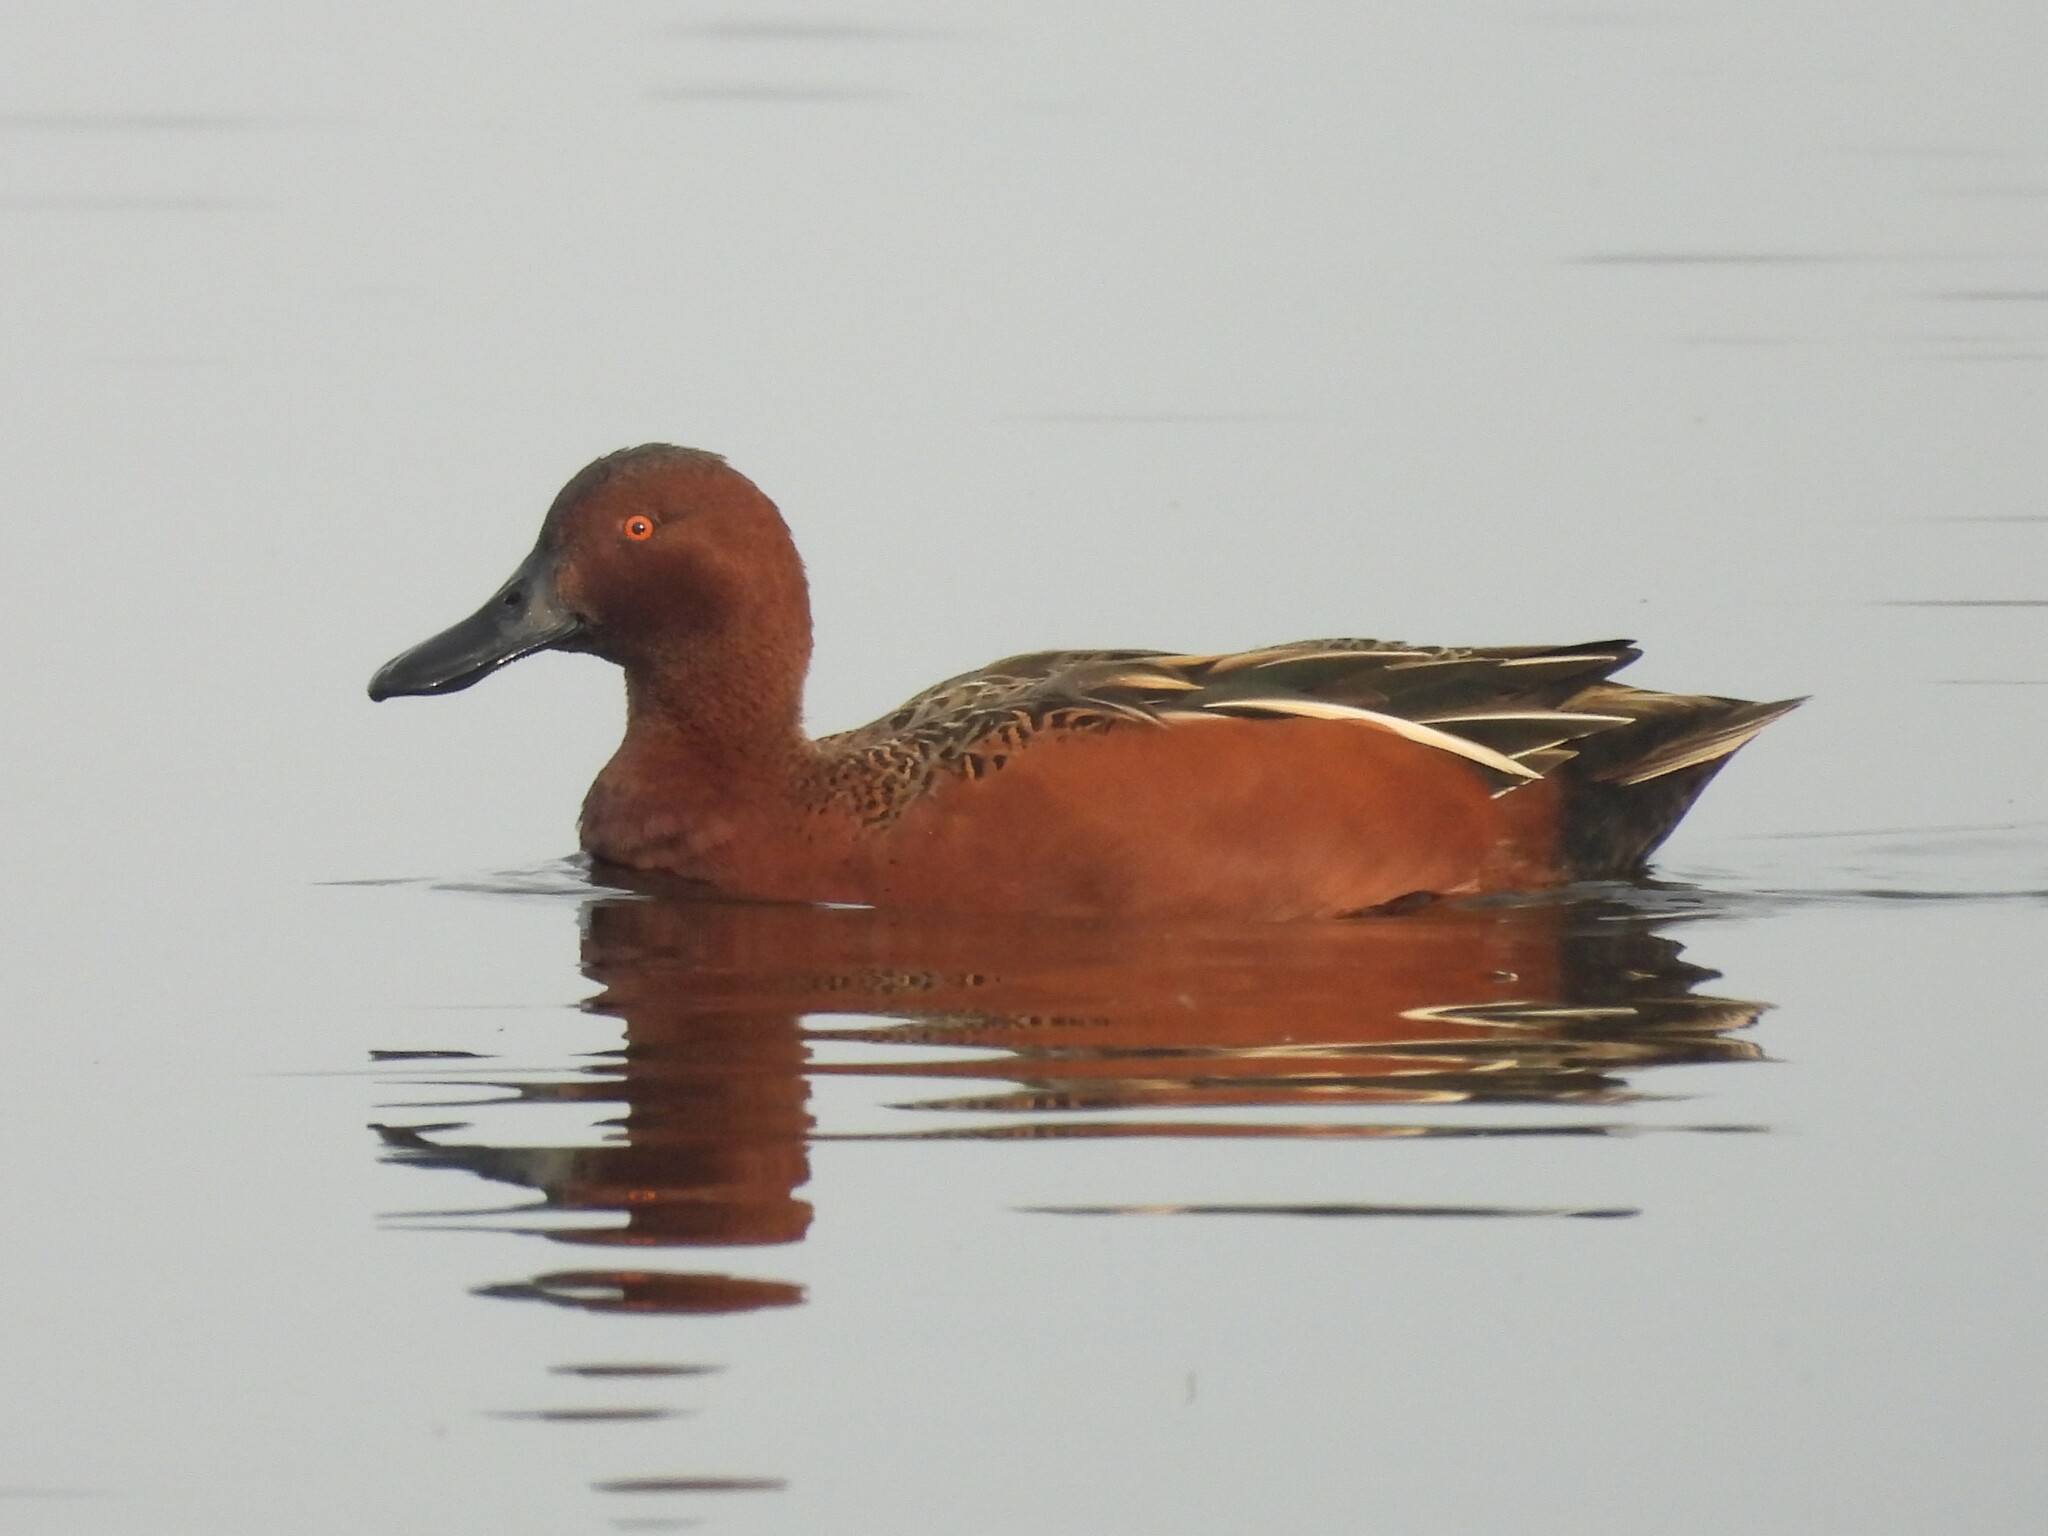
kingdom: Animalia
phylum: Chordata
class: Aves
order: Anseriformes
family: Anatidae
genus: Spatula
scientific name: Spatula cyanoptera
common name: Cinnamon teal
